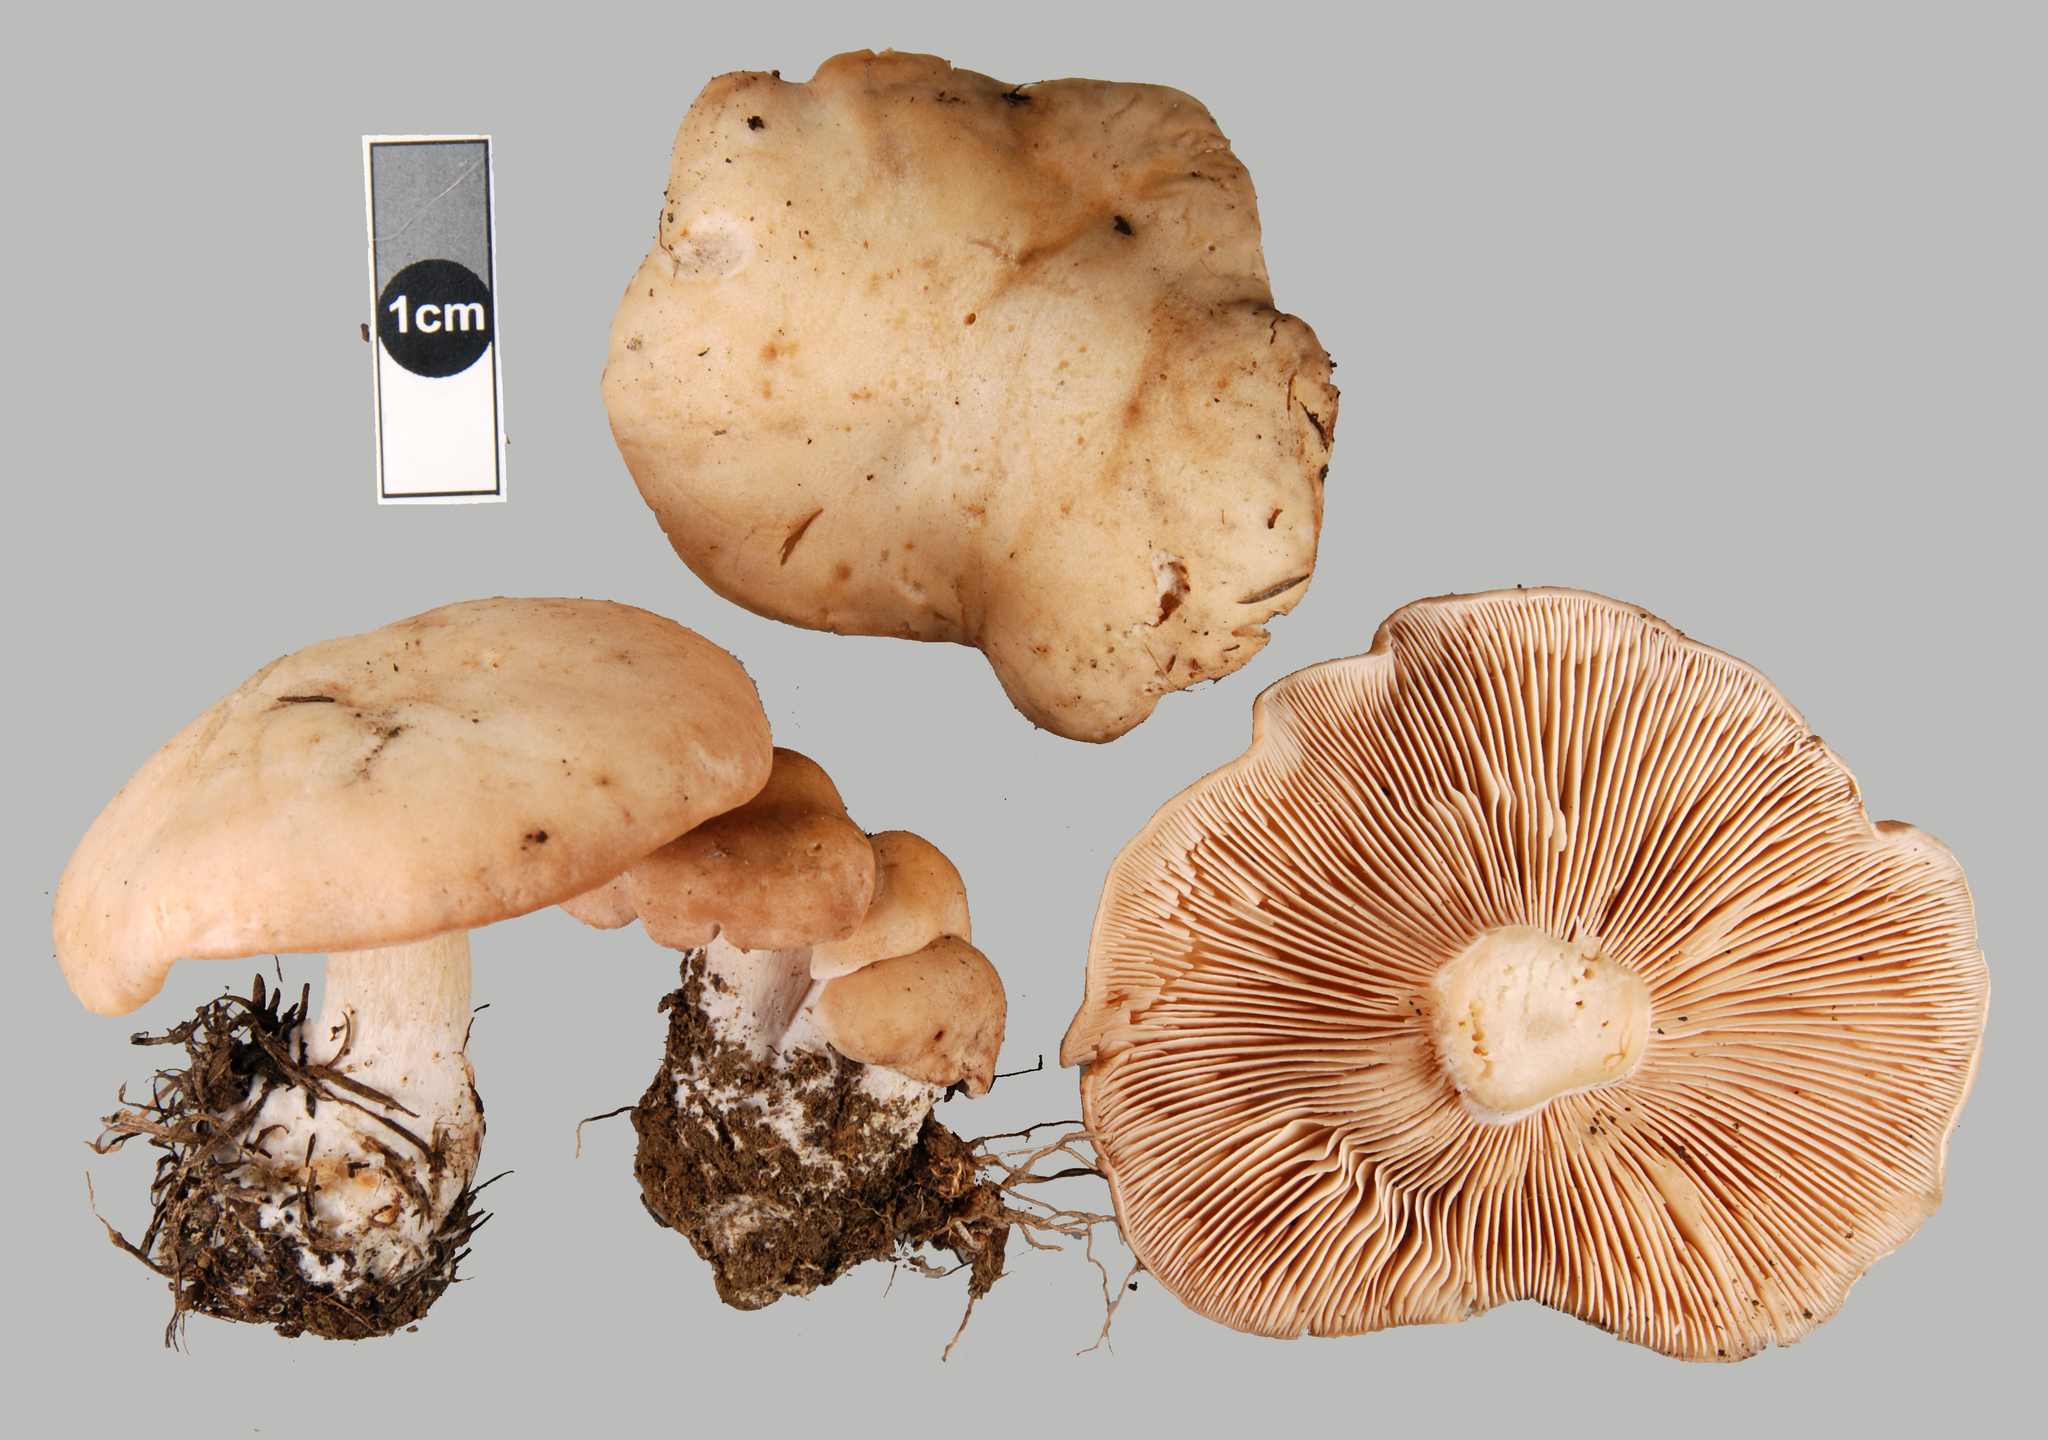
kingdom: Fungi
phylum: Basidiomycota
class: Agaricomycetes
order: Agaricales
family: Entolomataceae
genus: Clitopilus
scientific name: Clitopilus piperitus
